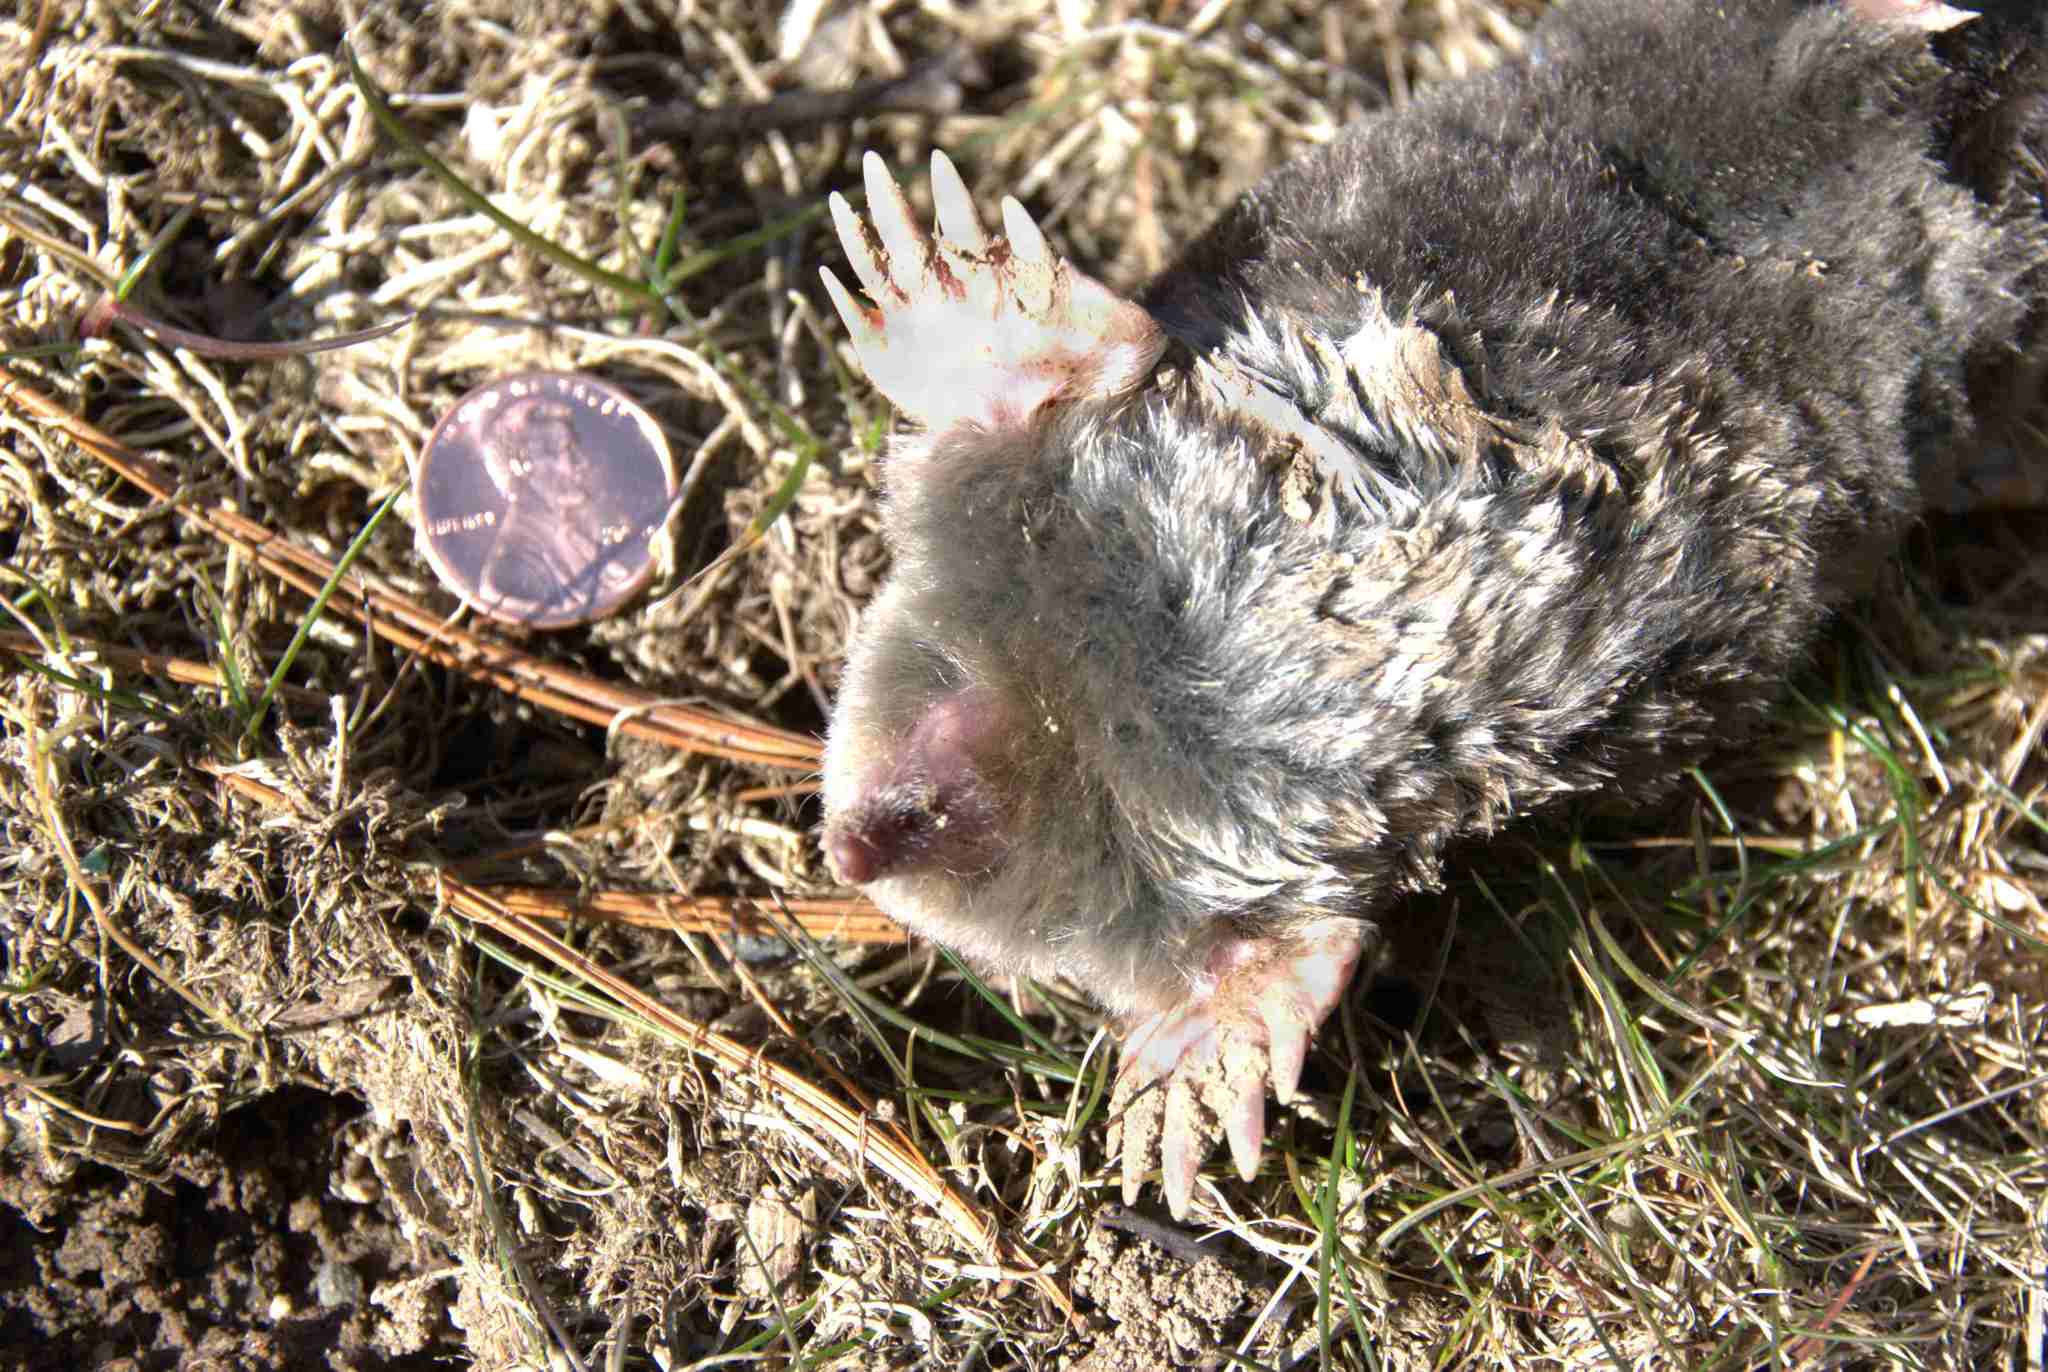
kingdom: Animalia
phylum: Chordata
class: Mammalia
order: Soricomorpha
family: Talpidae
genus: Scalopus
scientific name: Scalopus aquaticus
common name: Eastern mole
